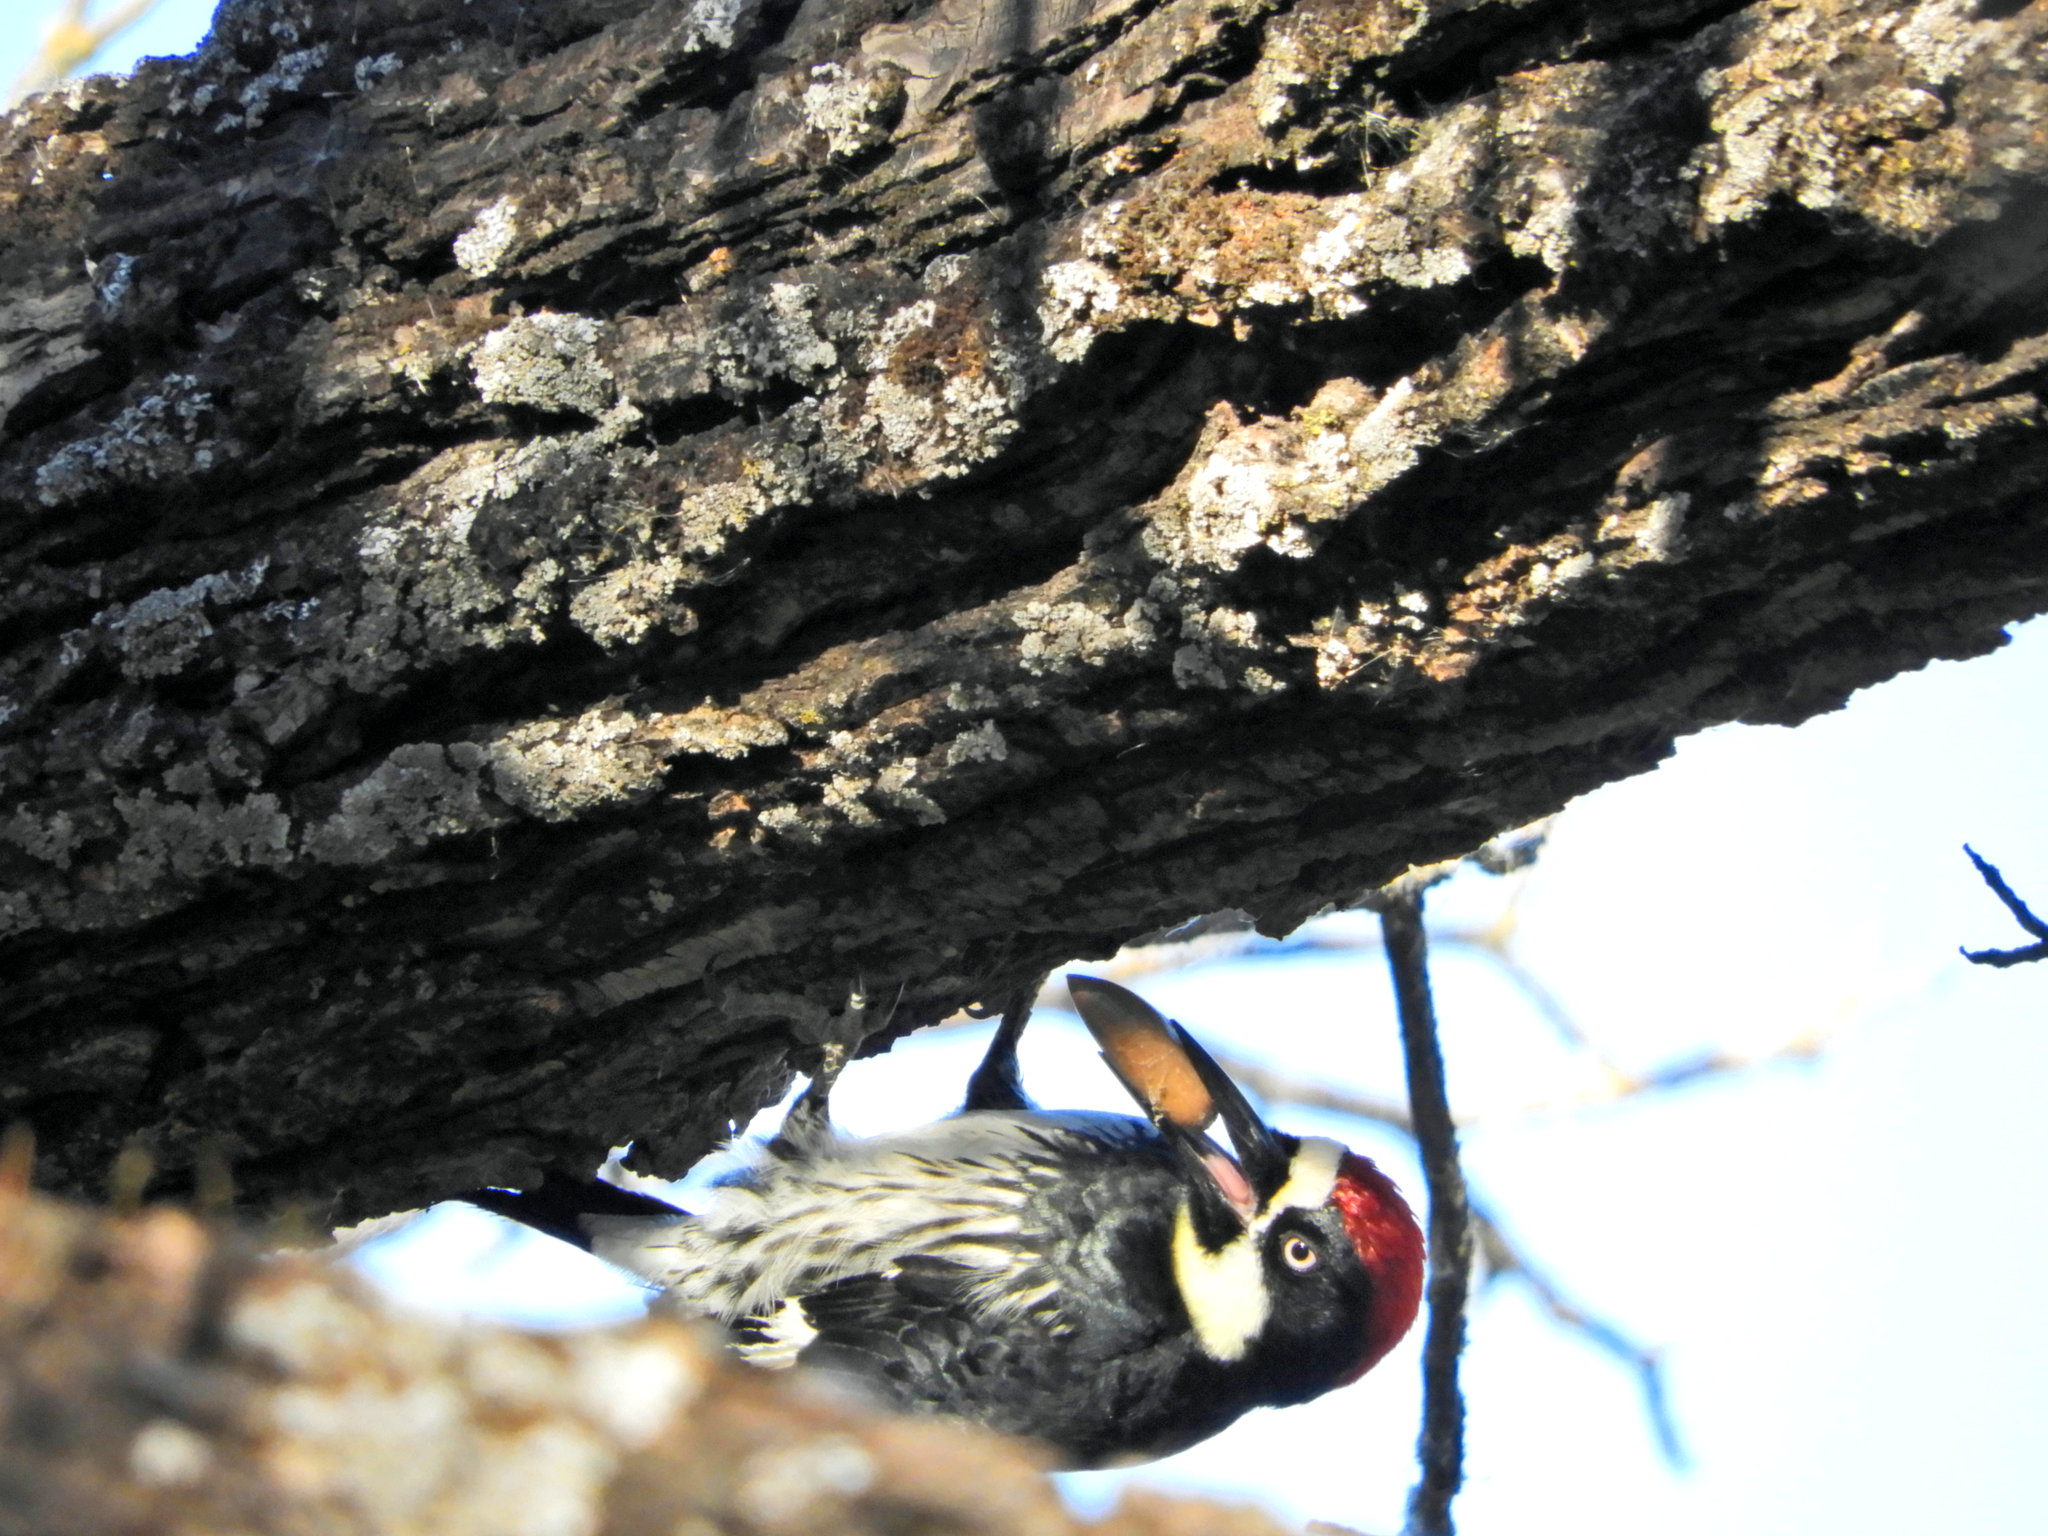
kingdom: Animalia
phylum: Chordata
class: Aves
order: Piciformes
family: Picidae
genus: Melanerpes
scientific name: Melanerpes formicivorus
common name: Acorn woodpecker
